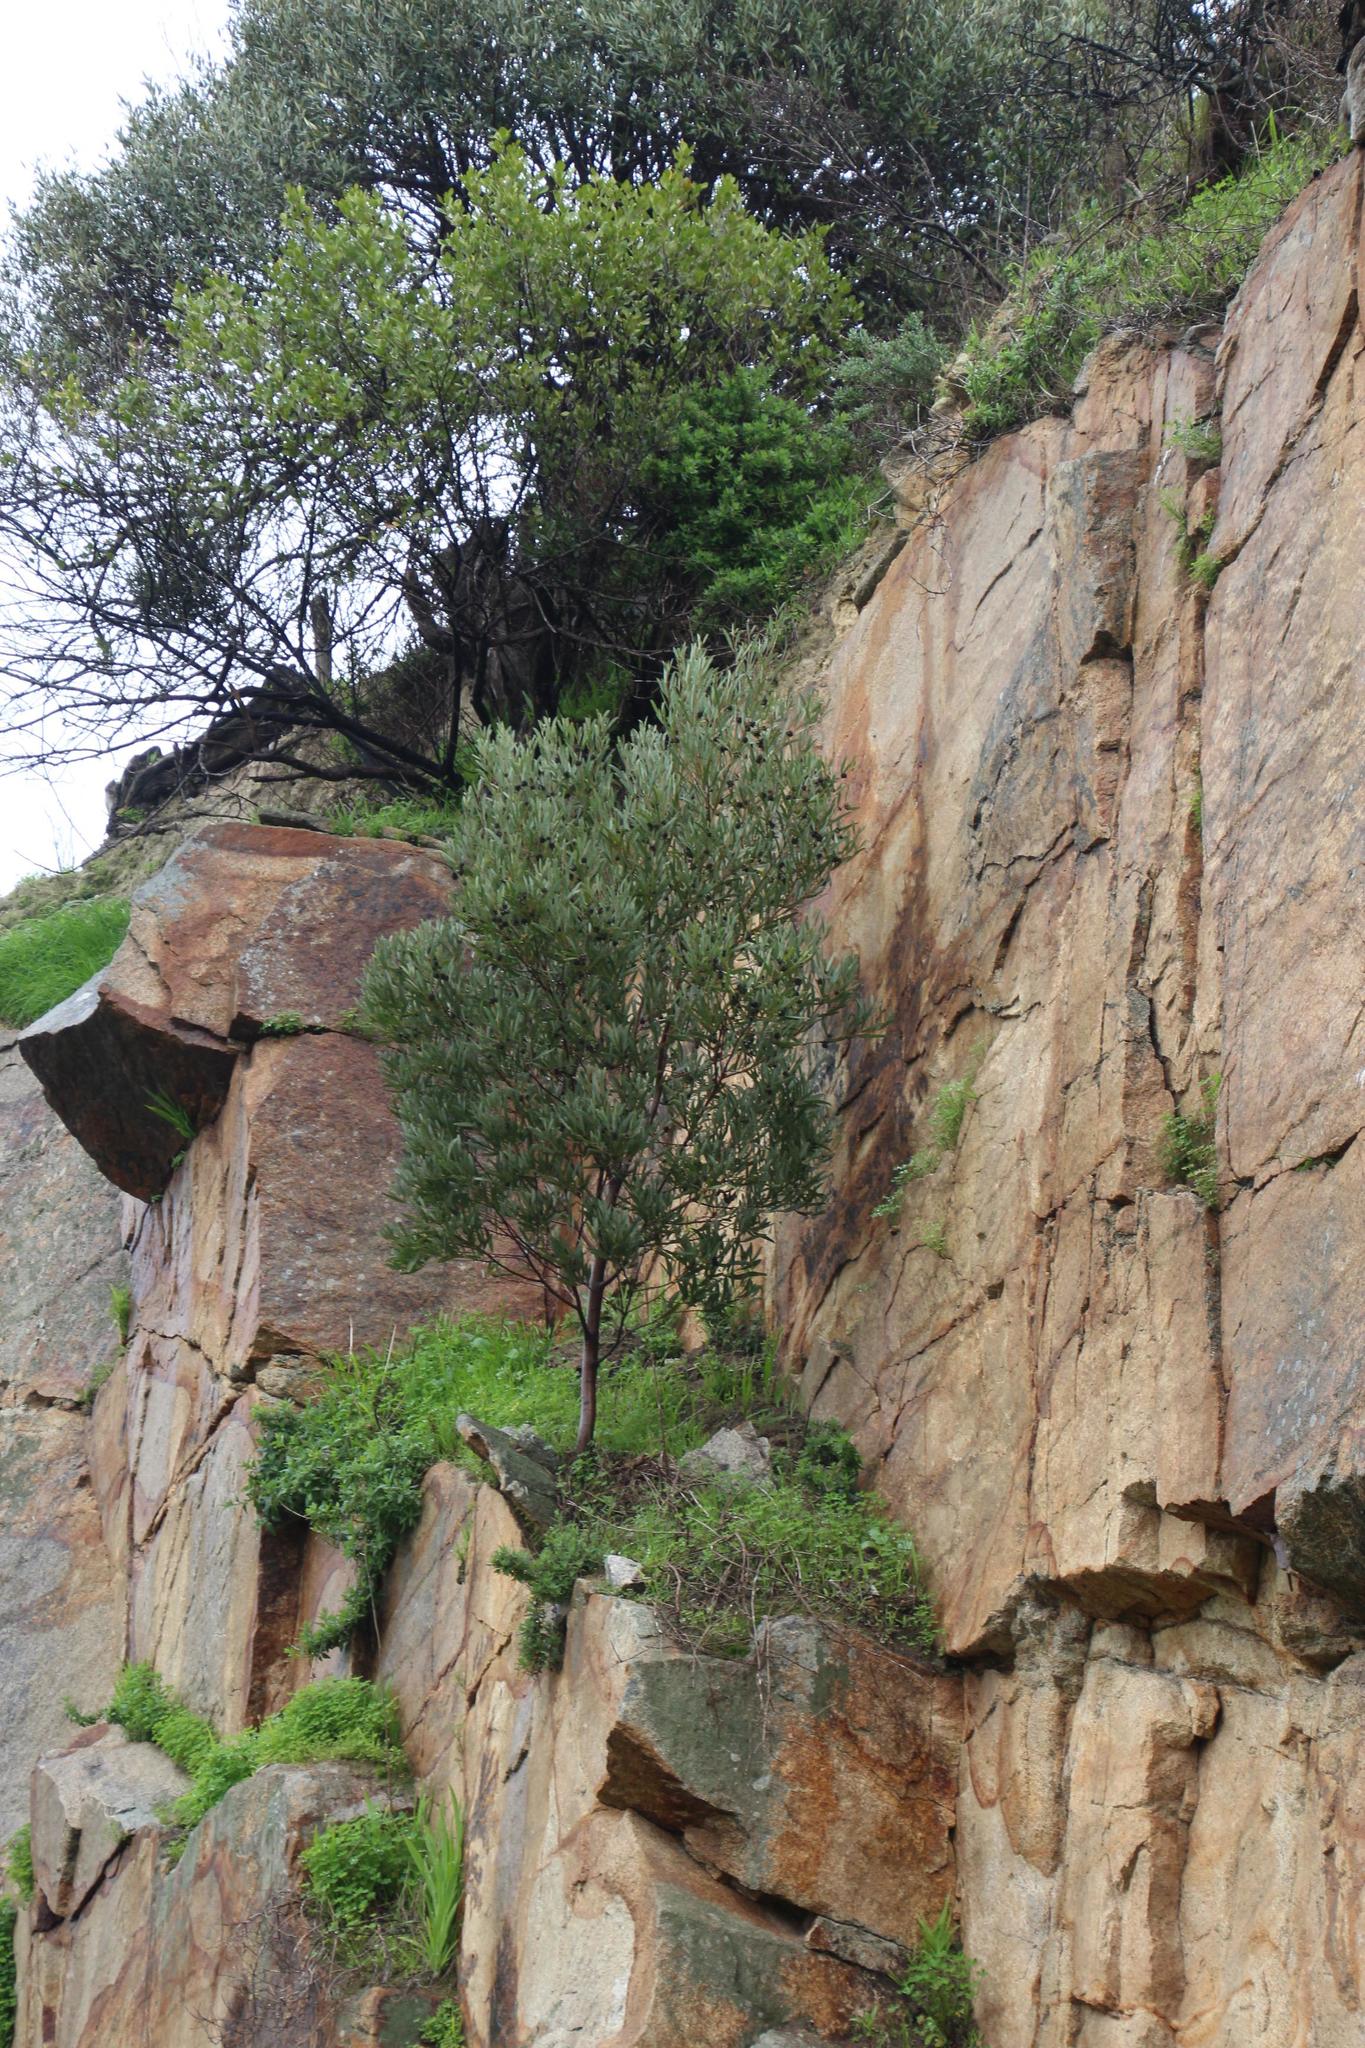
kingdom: Plantae
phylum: Tracheophyta
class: Magnoliopsida
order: Fabales
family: Fabaceae
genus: Acacia
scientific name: Acacia cyclops
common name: Coastal wattle
